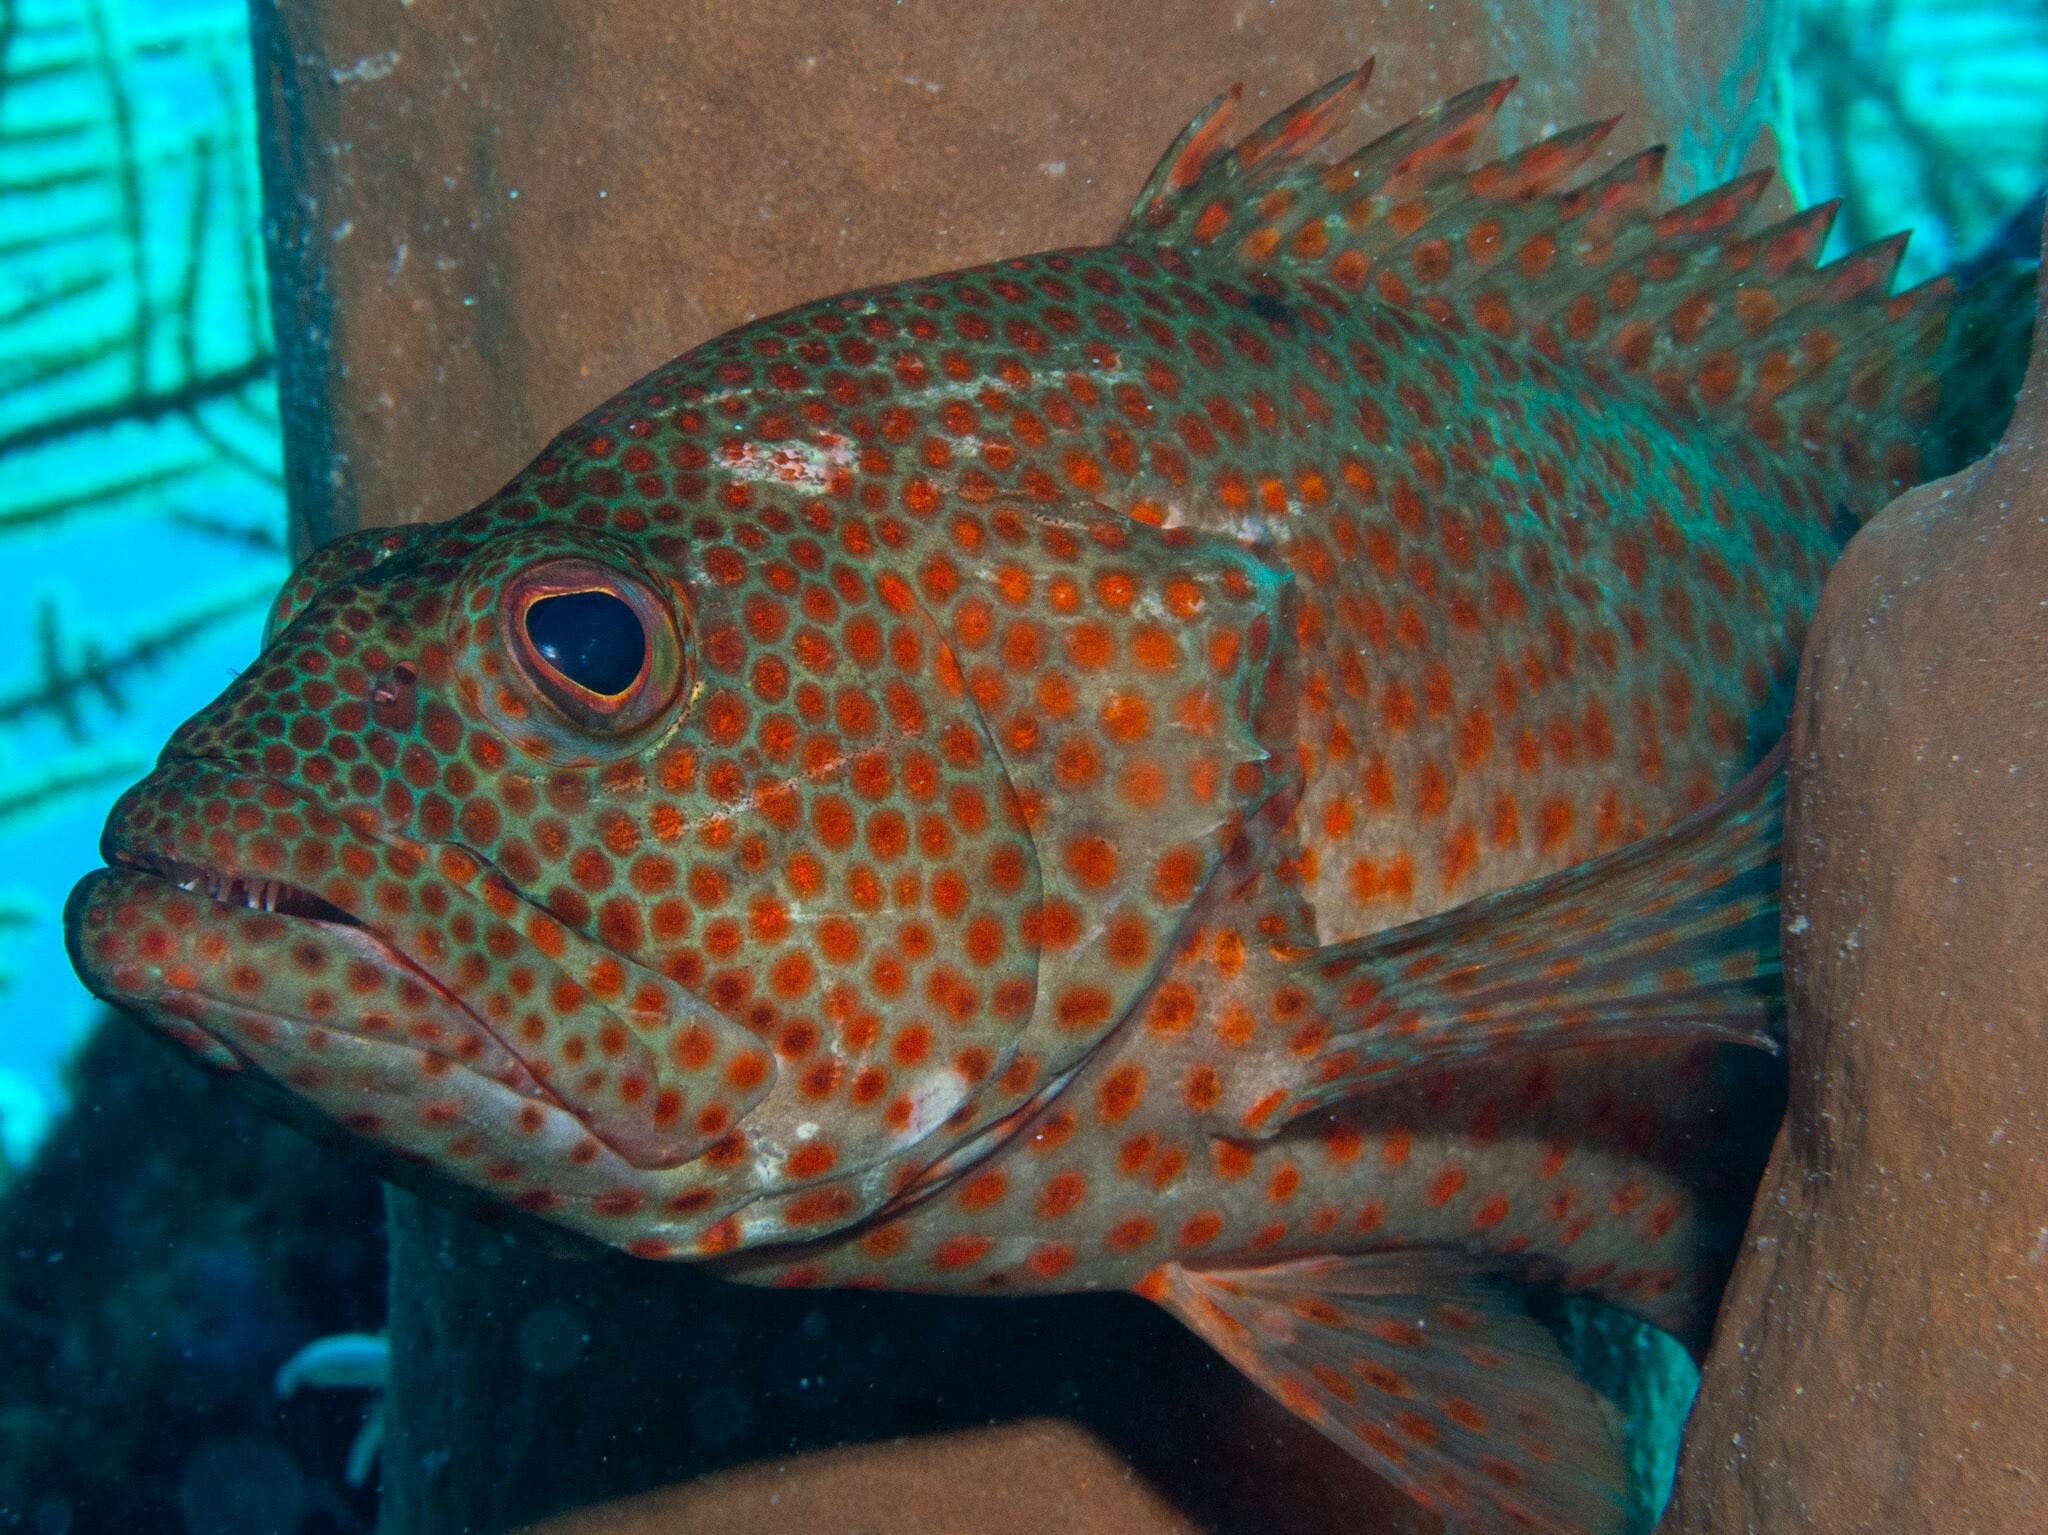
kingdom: Animalia
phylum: Chordata
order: Perciformes
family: Serranidae
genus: Cephalopholis
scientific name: Cephalopholis cruentata
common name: Graysby
